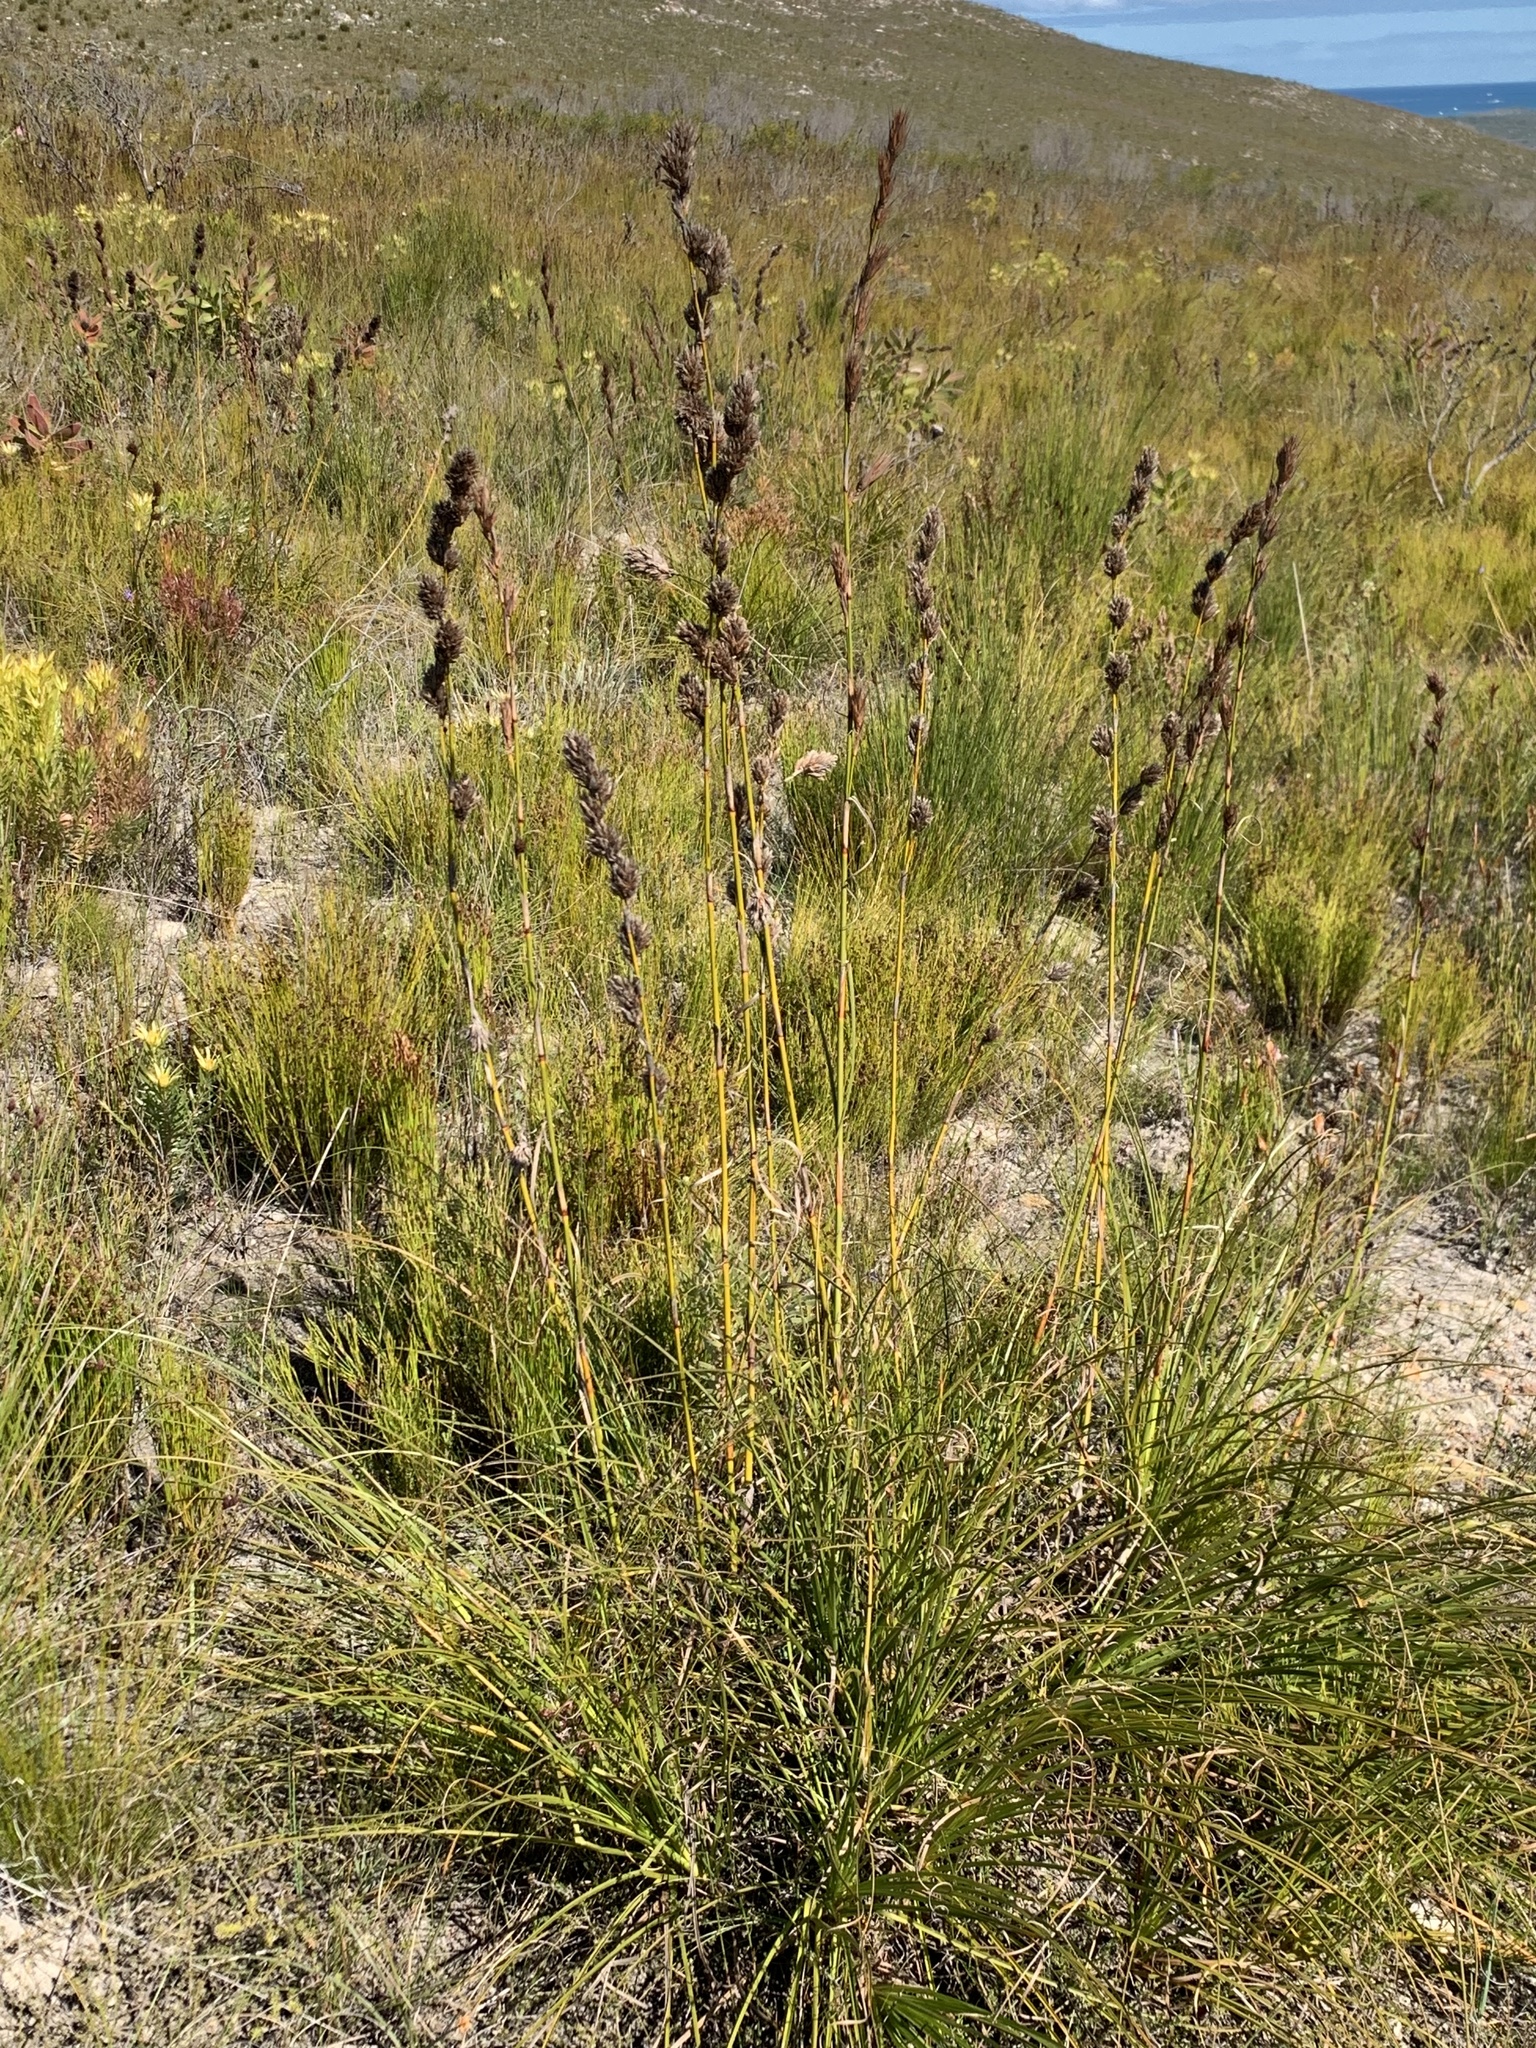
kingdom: Plantae
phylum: Tracheophyta
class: Liliopsida
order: Poales
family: Cyperaceae
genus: Tetraria
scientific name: Tetraria bromoides
